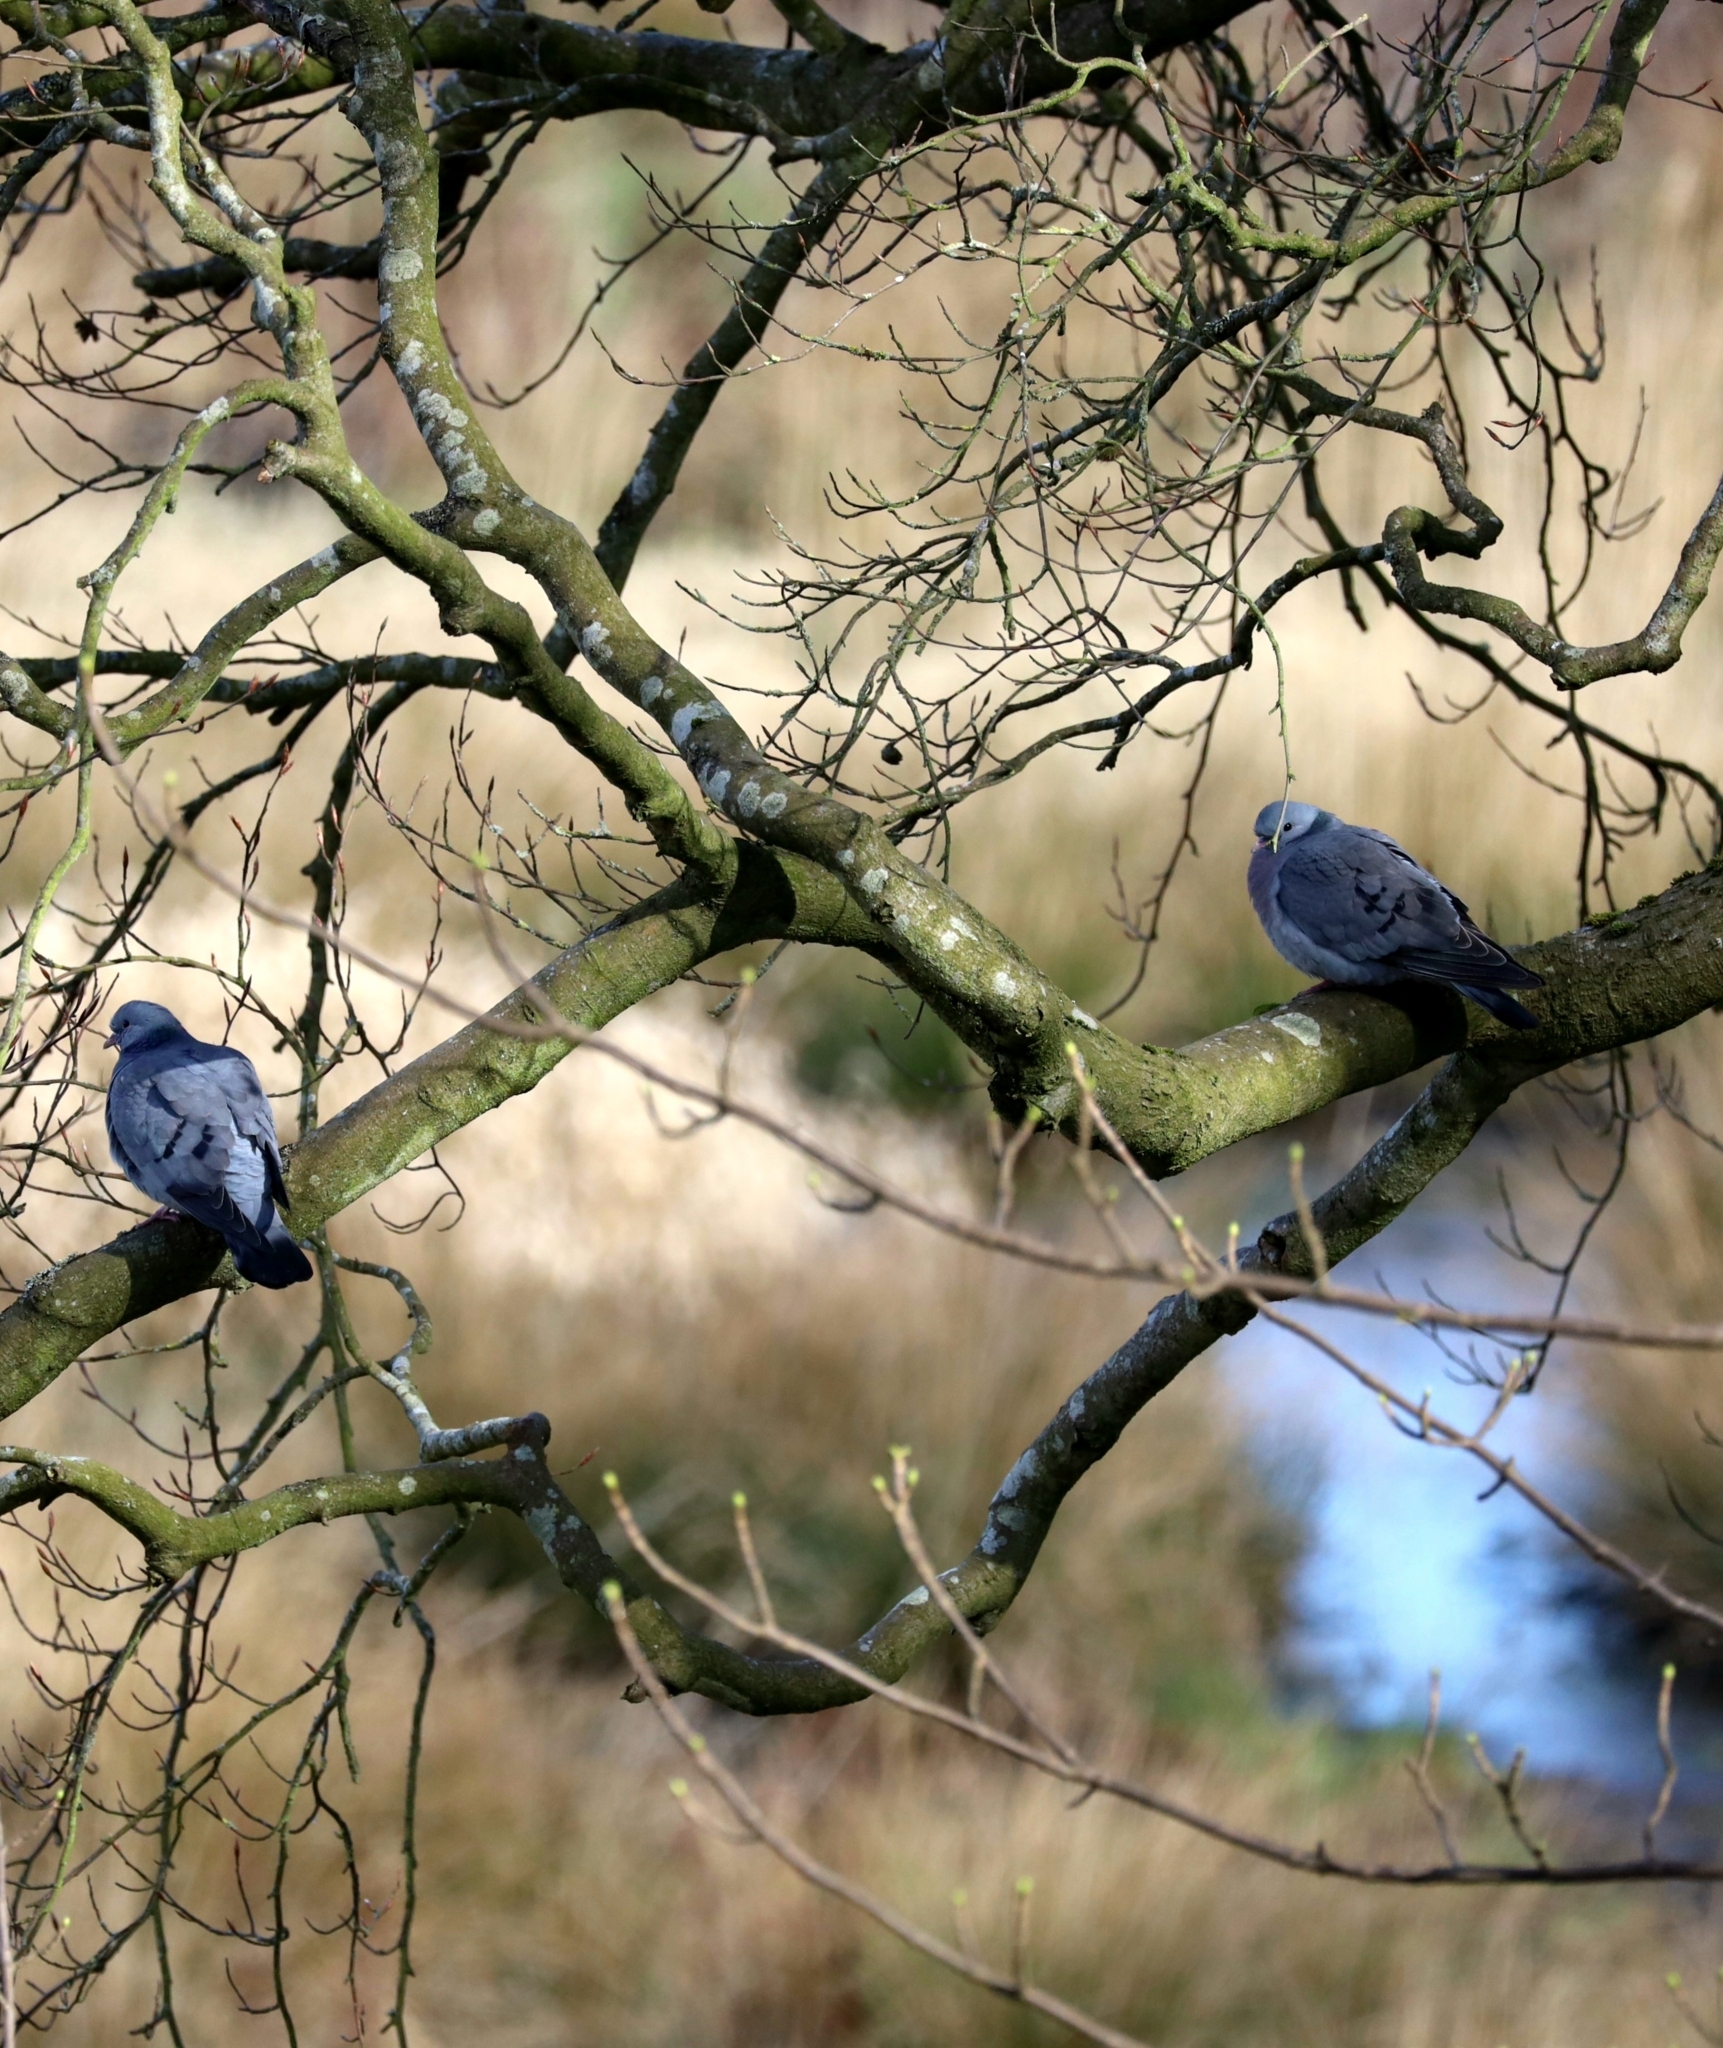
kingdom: Animalia
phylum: Chordata
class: Aves
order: Columbiformes
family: Columbidae
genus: Columba
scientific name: Columba oenas
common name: Stock dove
